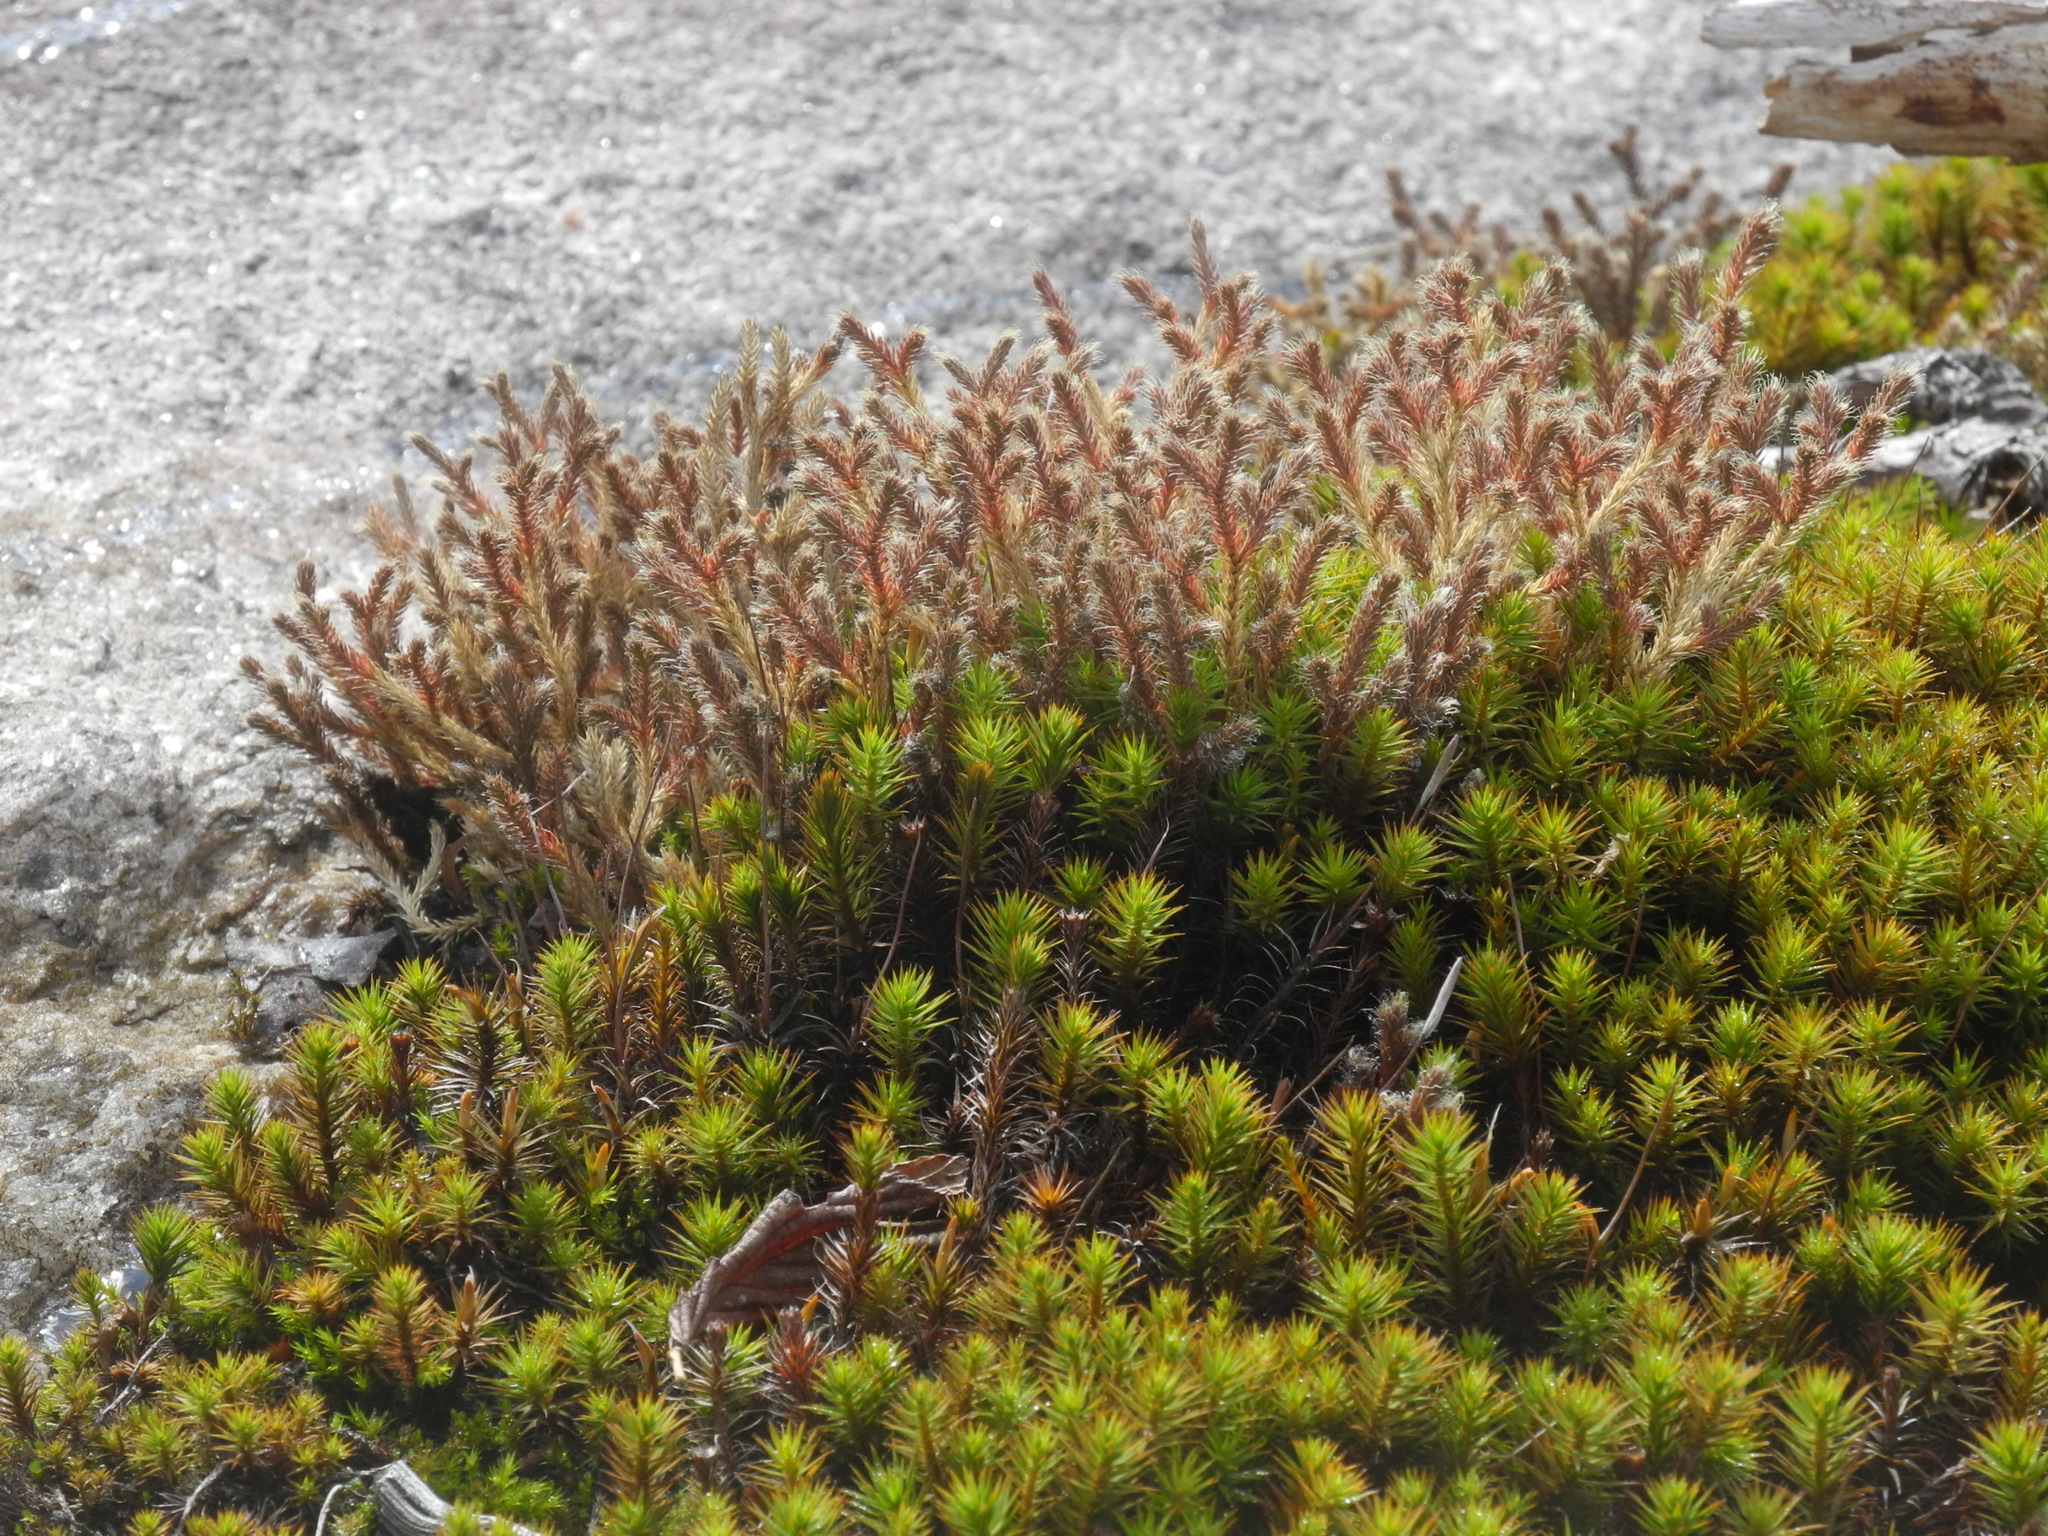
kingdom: Plantae
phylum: Tracheophyta
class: Lycopodiopsida
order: Selaginellales
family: Selaginellaceae
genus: Selaginella
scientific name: Selaginella tortipila
